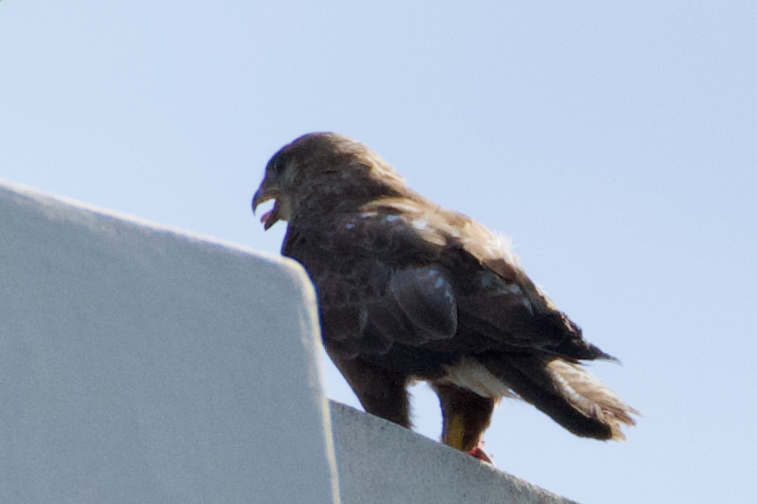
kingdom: Animalia
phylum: Chordata
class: Aves
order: Accipitriformes
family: Accipitridae
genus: Buteo
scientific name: Buteo buteo
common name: Common buzzard
